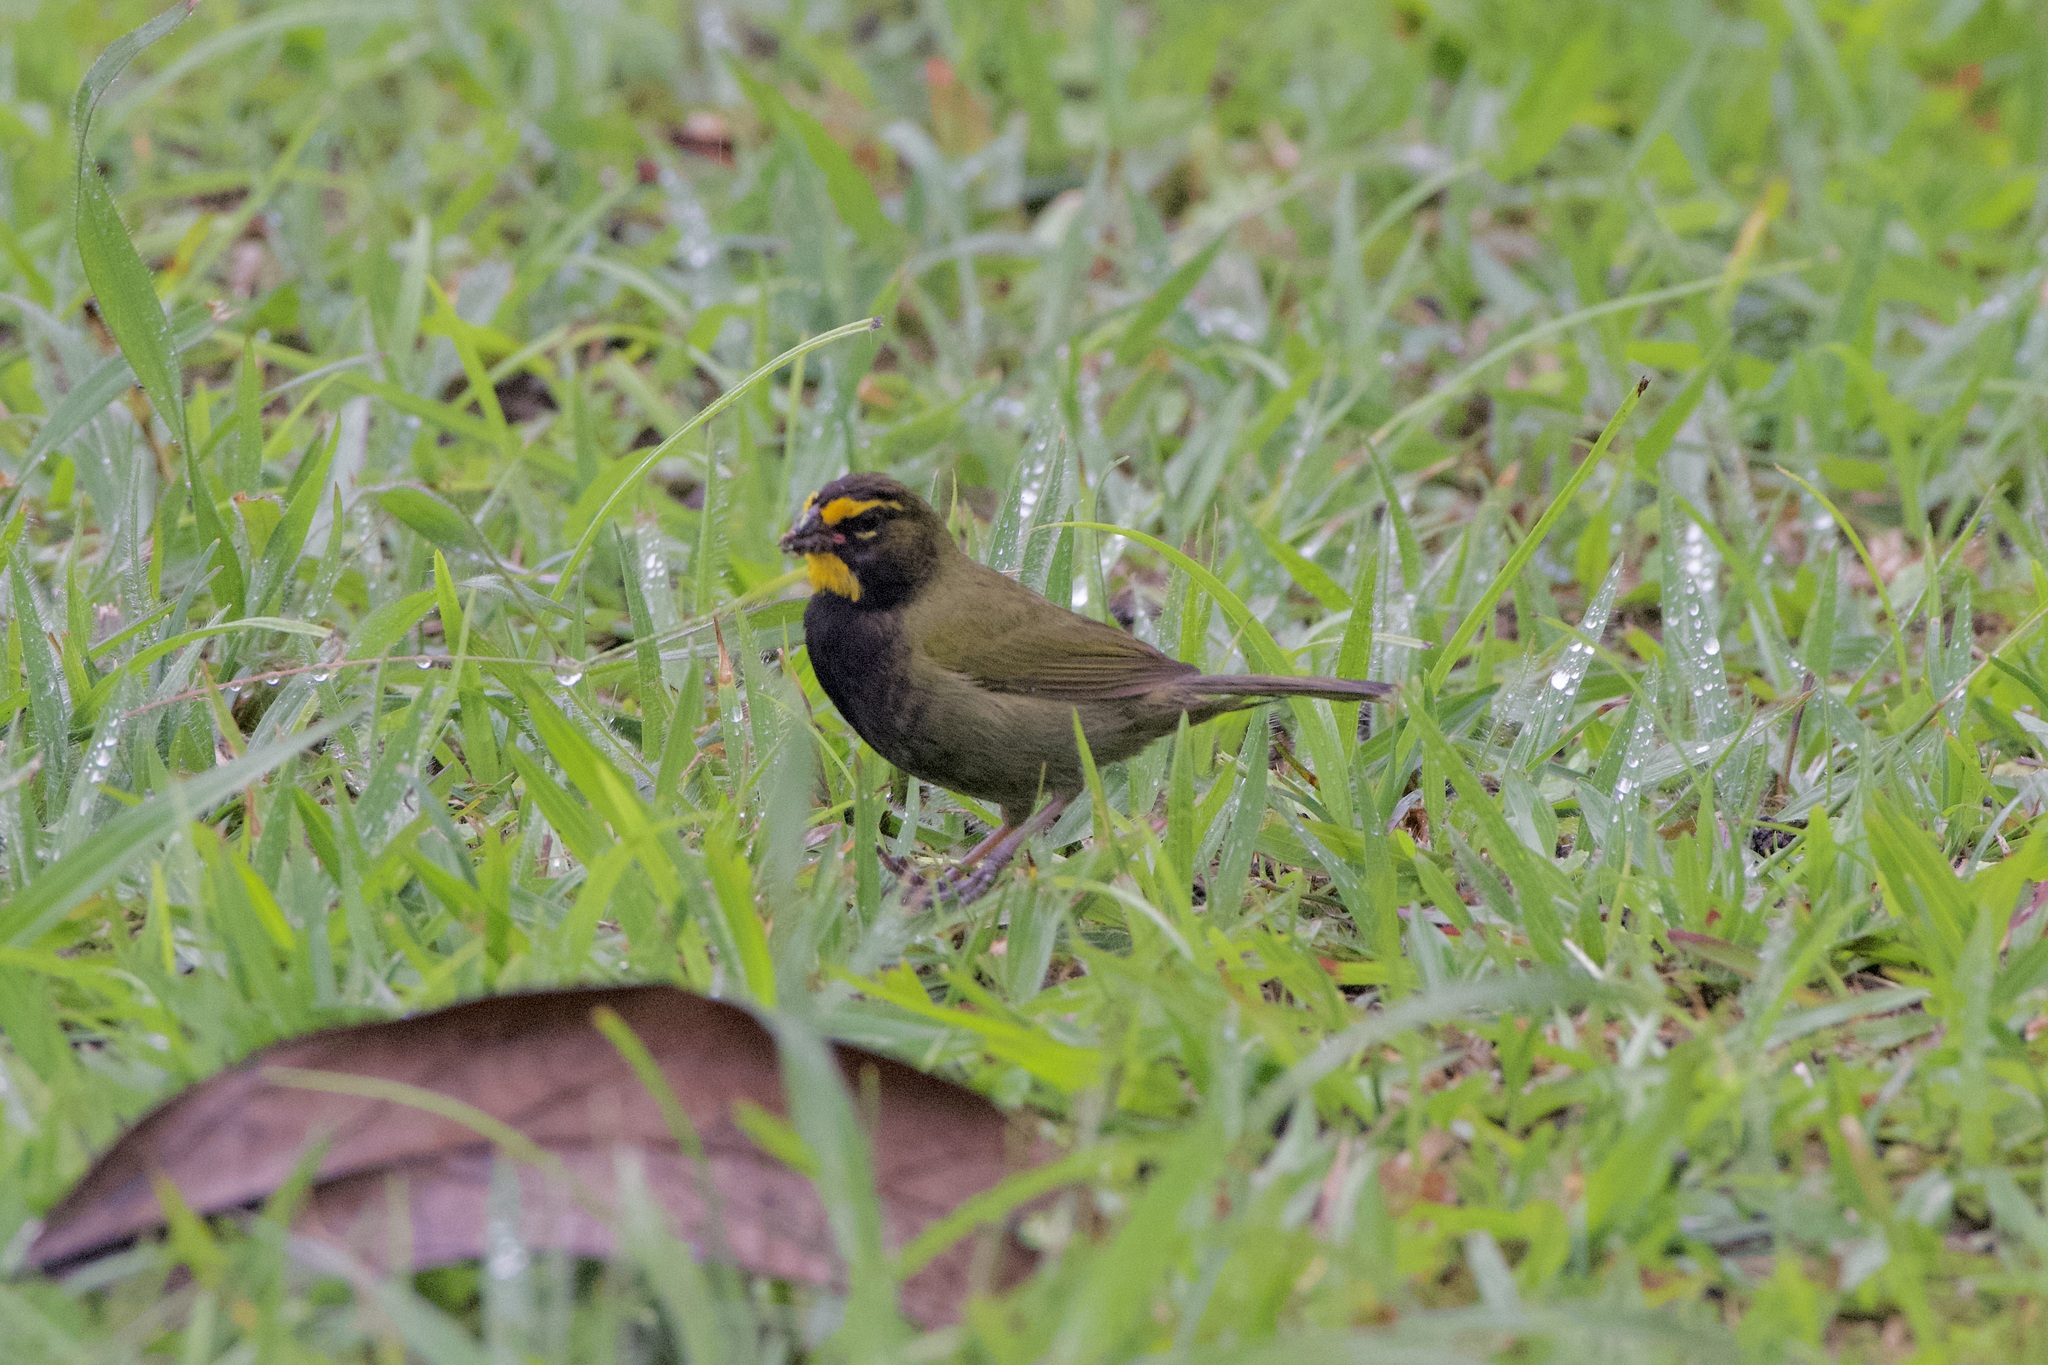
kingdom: Animalia
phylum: Chordata
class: Aves
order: Passeriformes
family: Thraupidae
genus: Tiaris
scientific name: Tiaris olivaceus
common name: Yellow-faced grassquit
